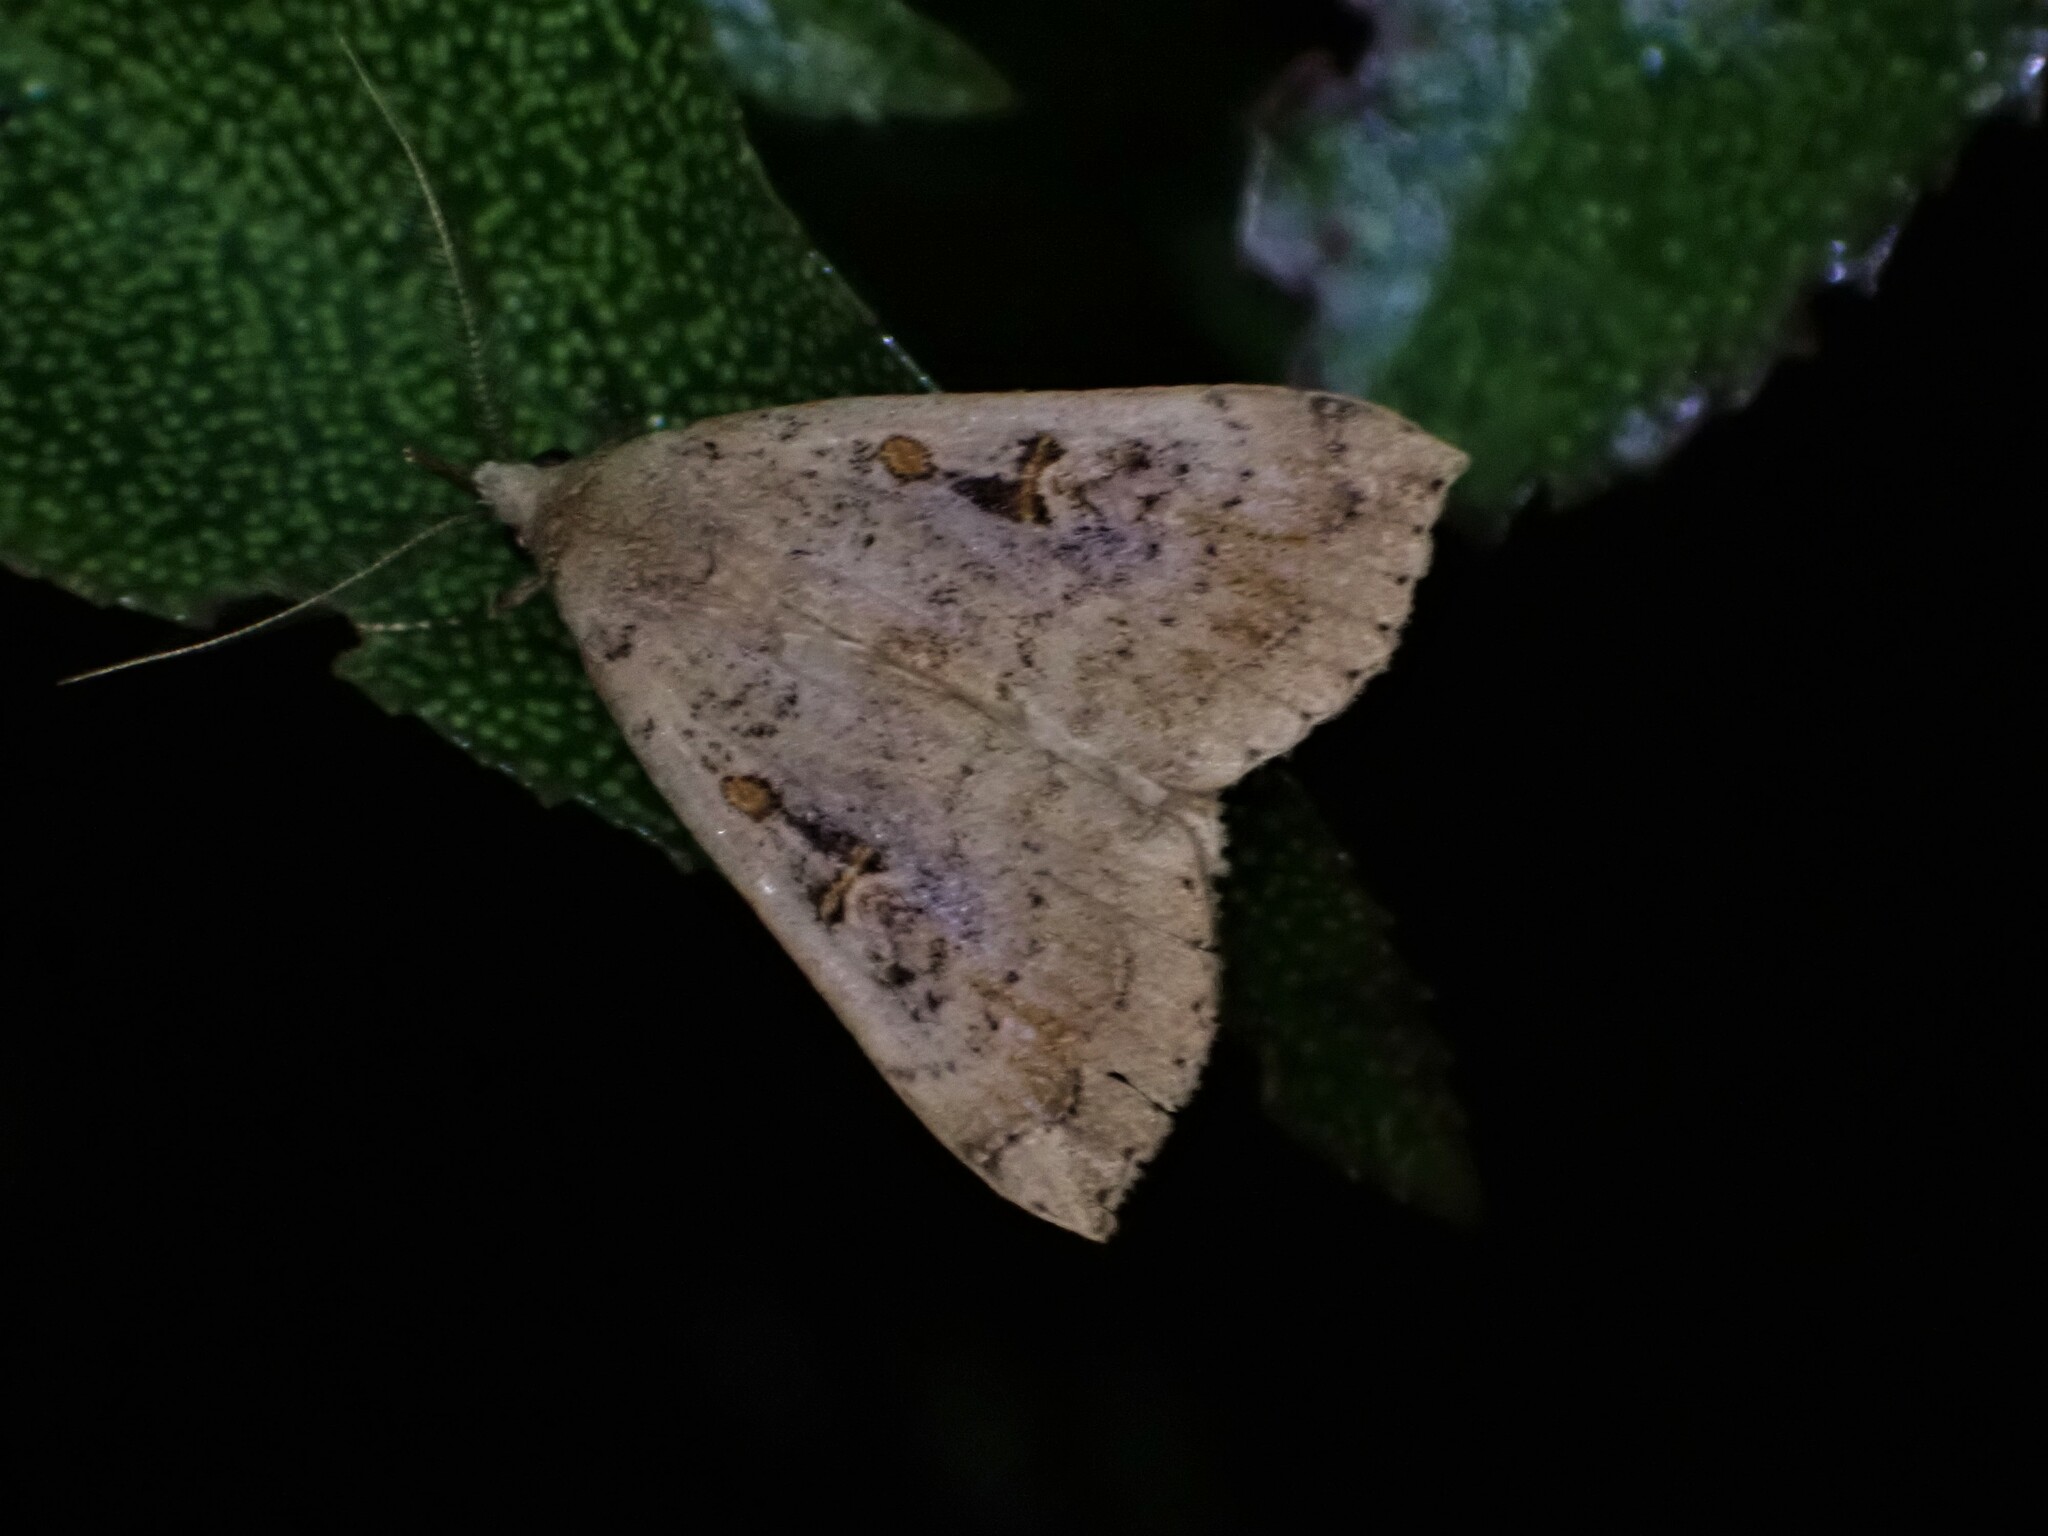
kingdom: Animalia
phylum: Arthropoda
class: Insecta
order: Lepidoptera
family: Erebidae
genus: Rhapsa
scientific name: Rhapsa scotosialis
